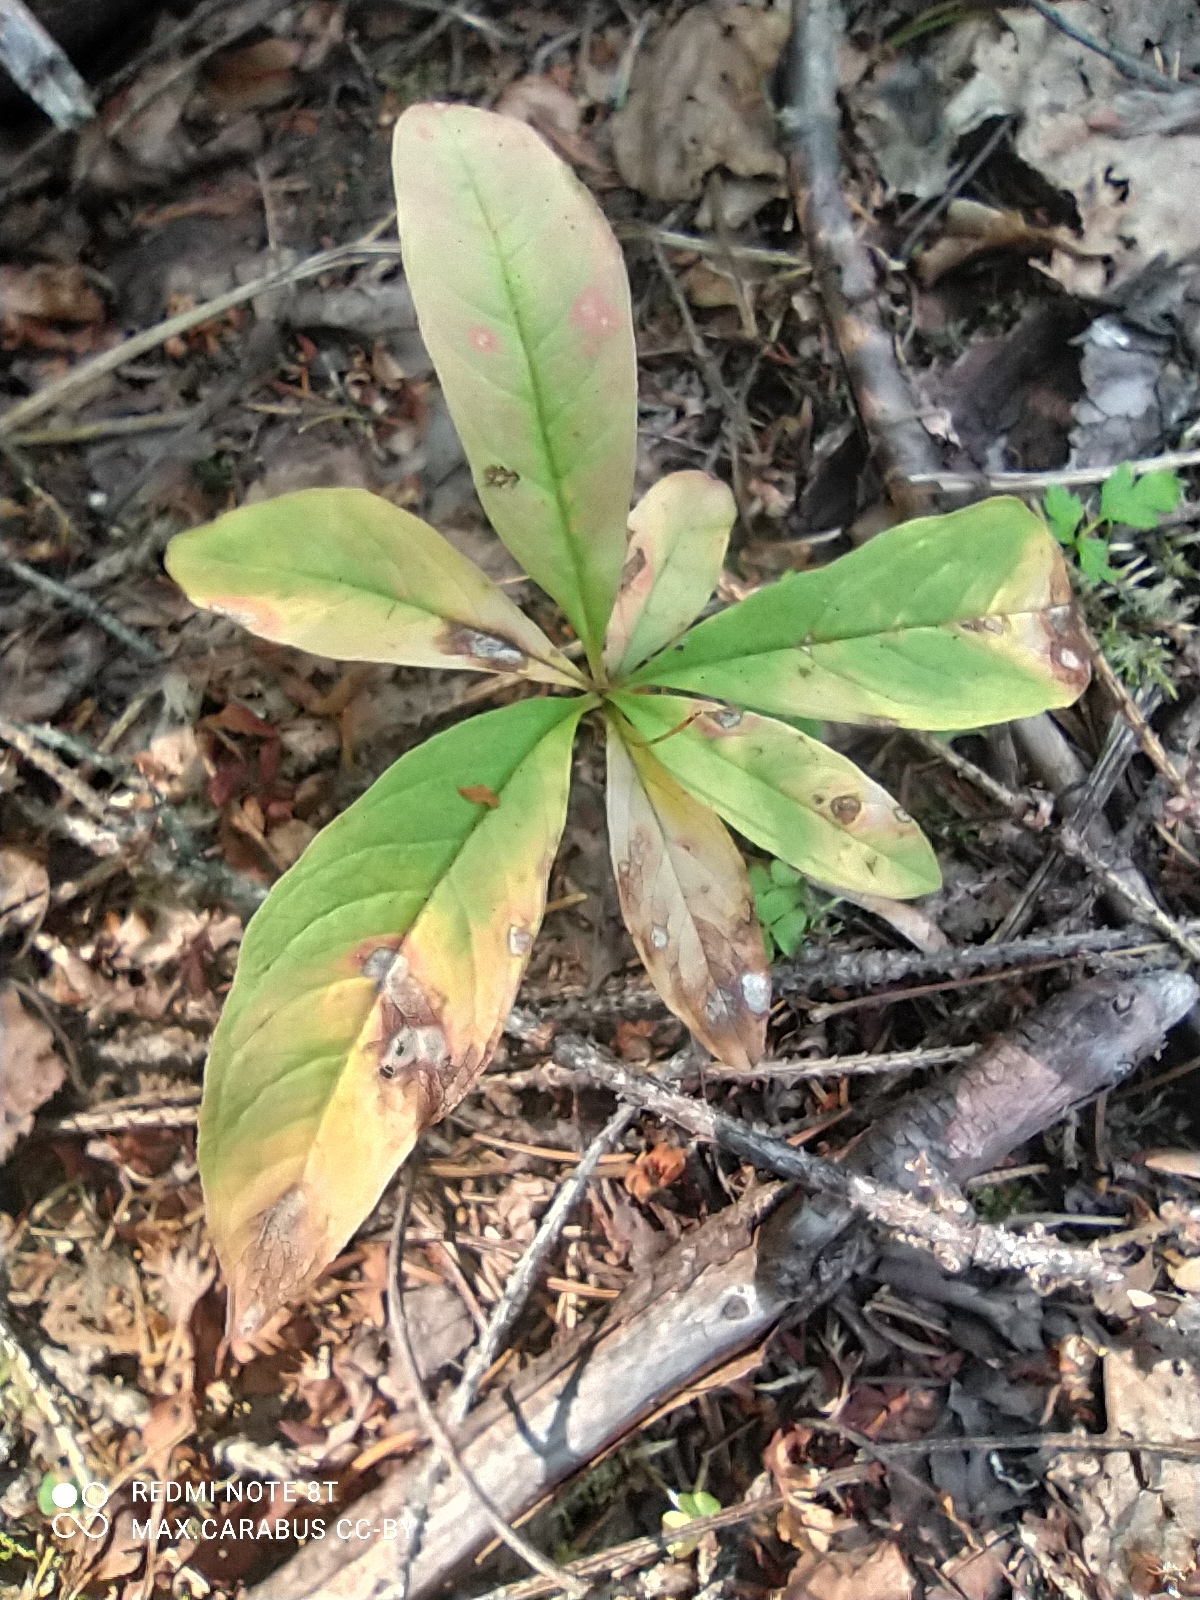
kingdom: Plantae
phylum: Tracheophyta
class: Magnoliopsida
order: Ericales
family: Primulaceae
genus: Lysimachia
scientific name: Lysimachia europaea
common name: Arctic starflower
